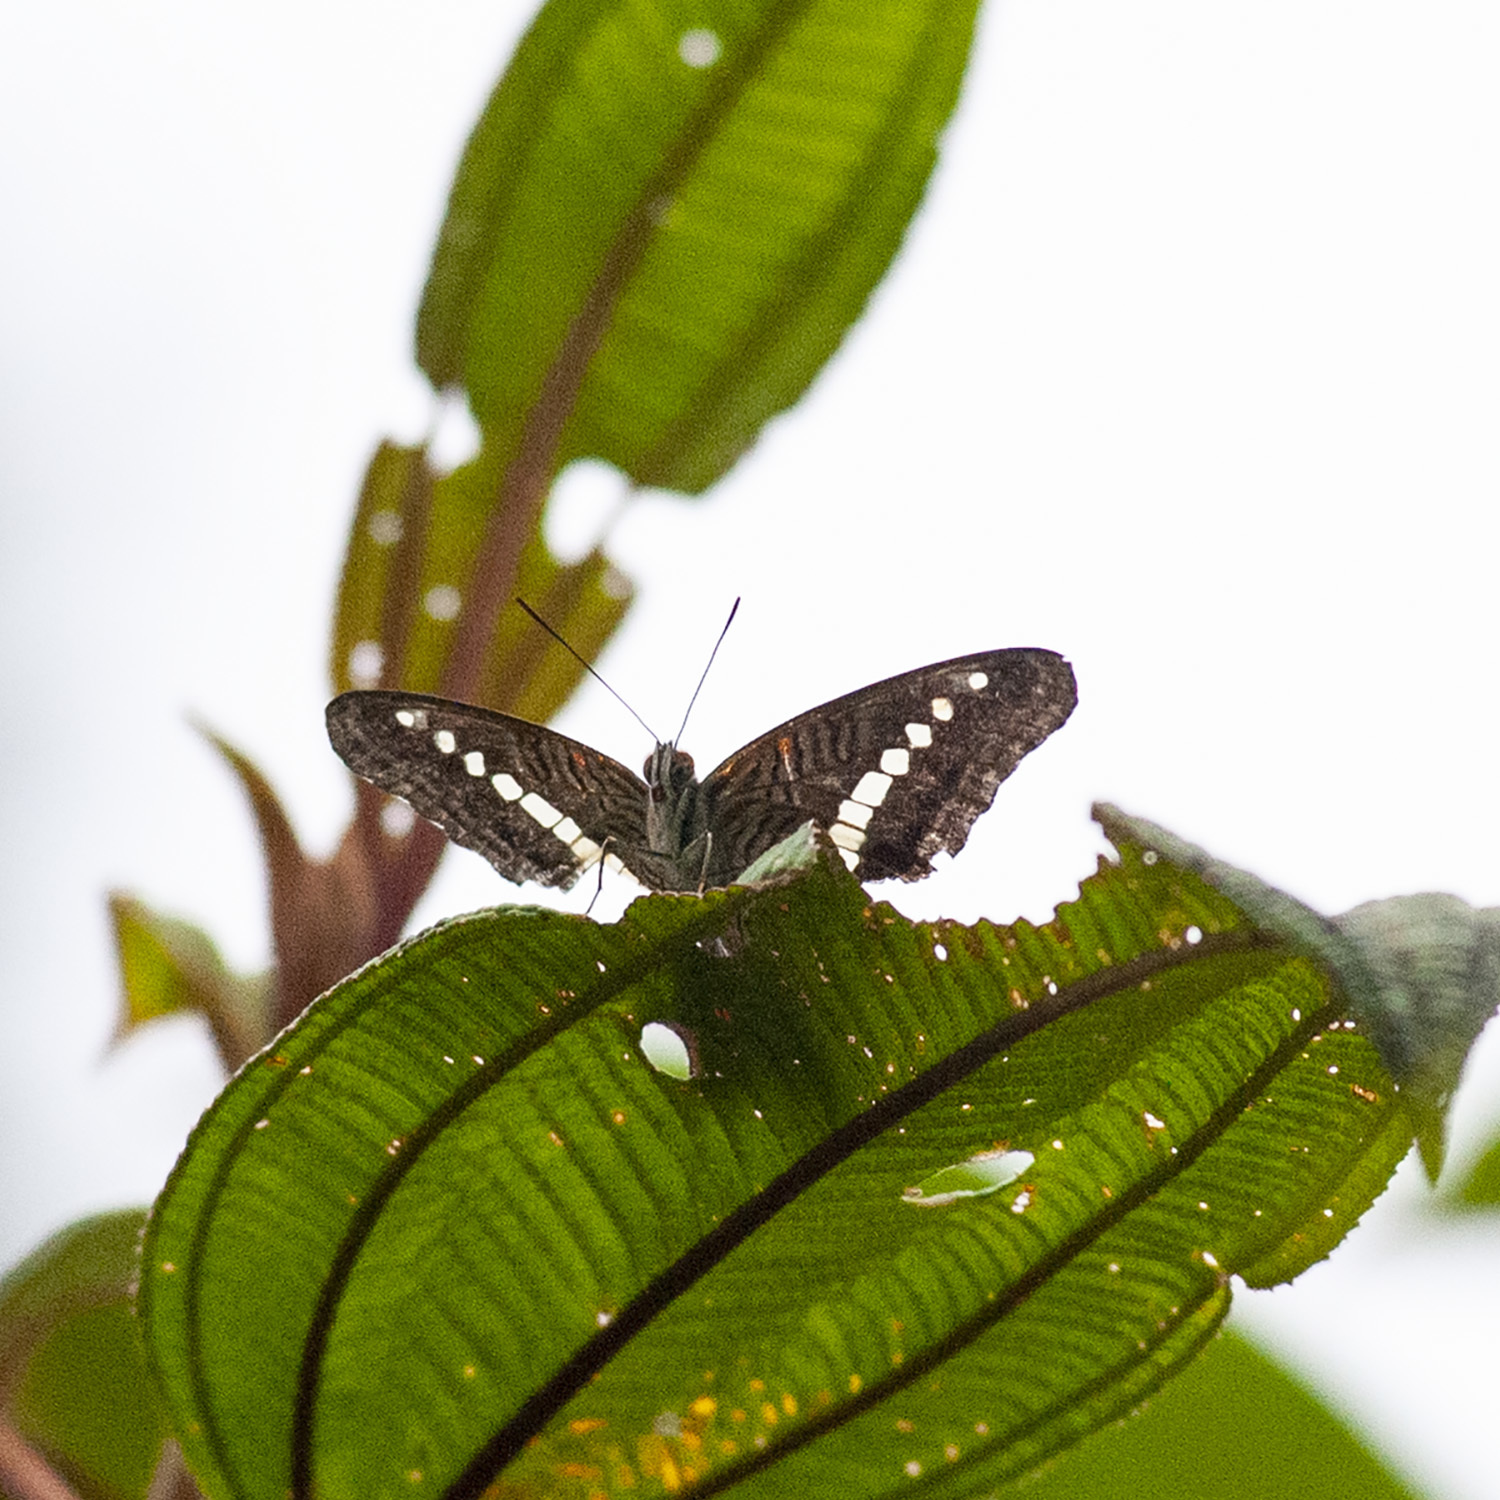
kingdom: Animalia
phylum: Arthropoda
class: Insecta
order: Lepidoptera
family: Nymphalidae
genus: Limenitis
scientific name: Limenitis gelania
